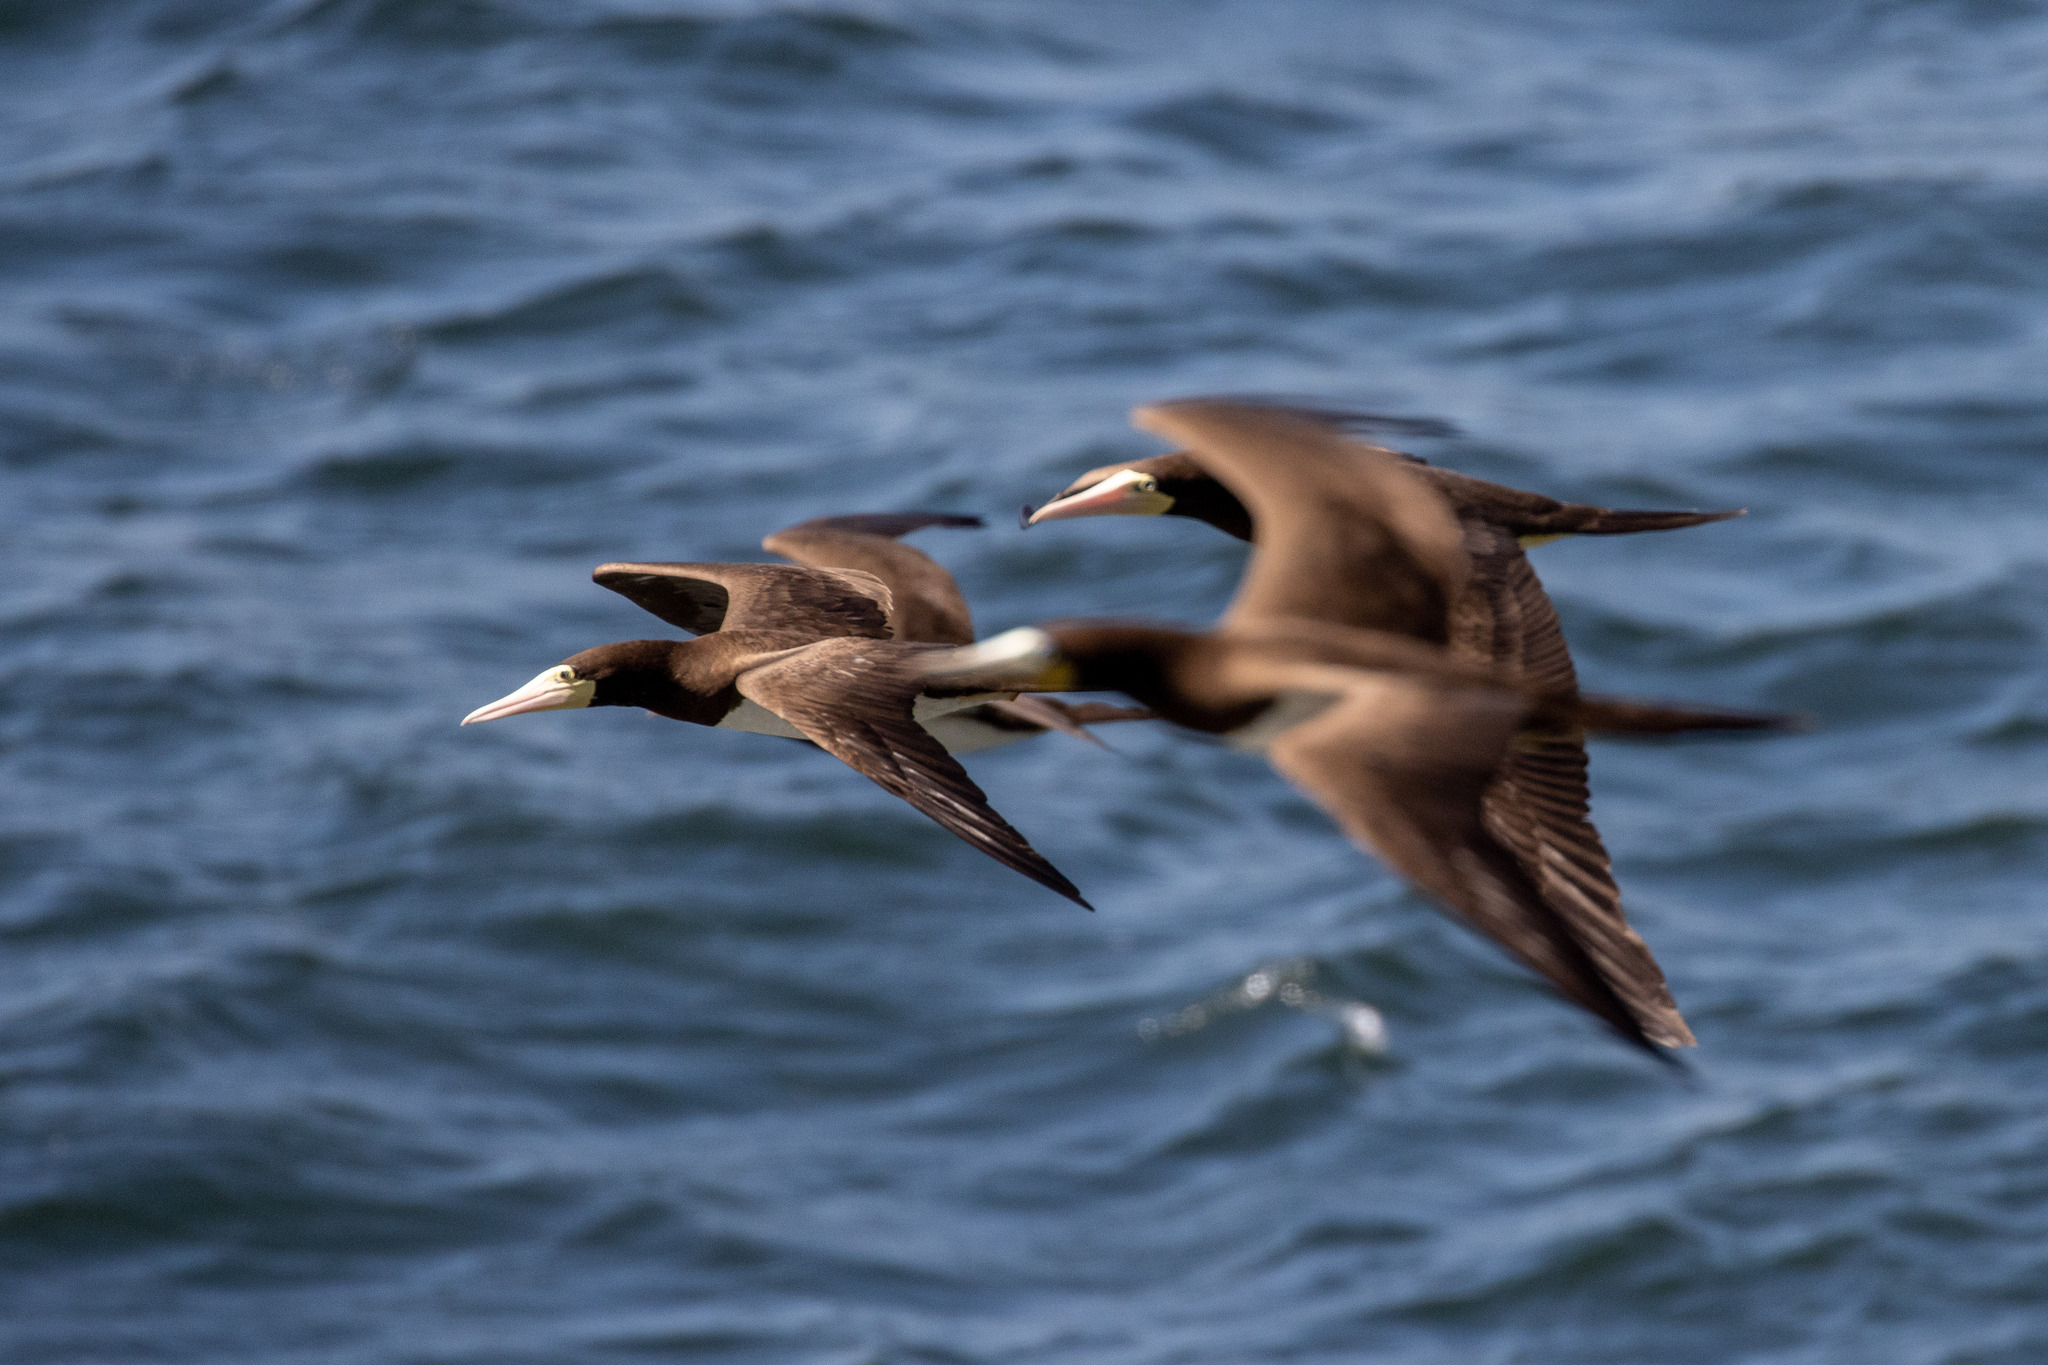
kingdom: Animalia
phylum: Chordata
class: Aves
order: Suliformes
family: Sulidae
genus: Sula
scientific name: Sula leucogaster
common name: Brown booby
